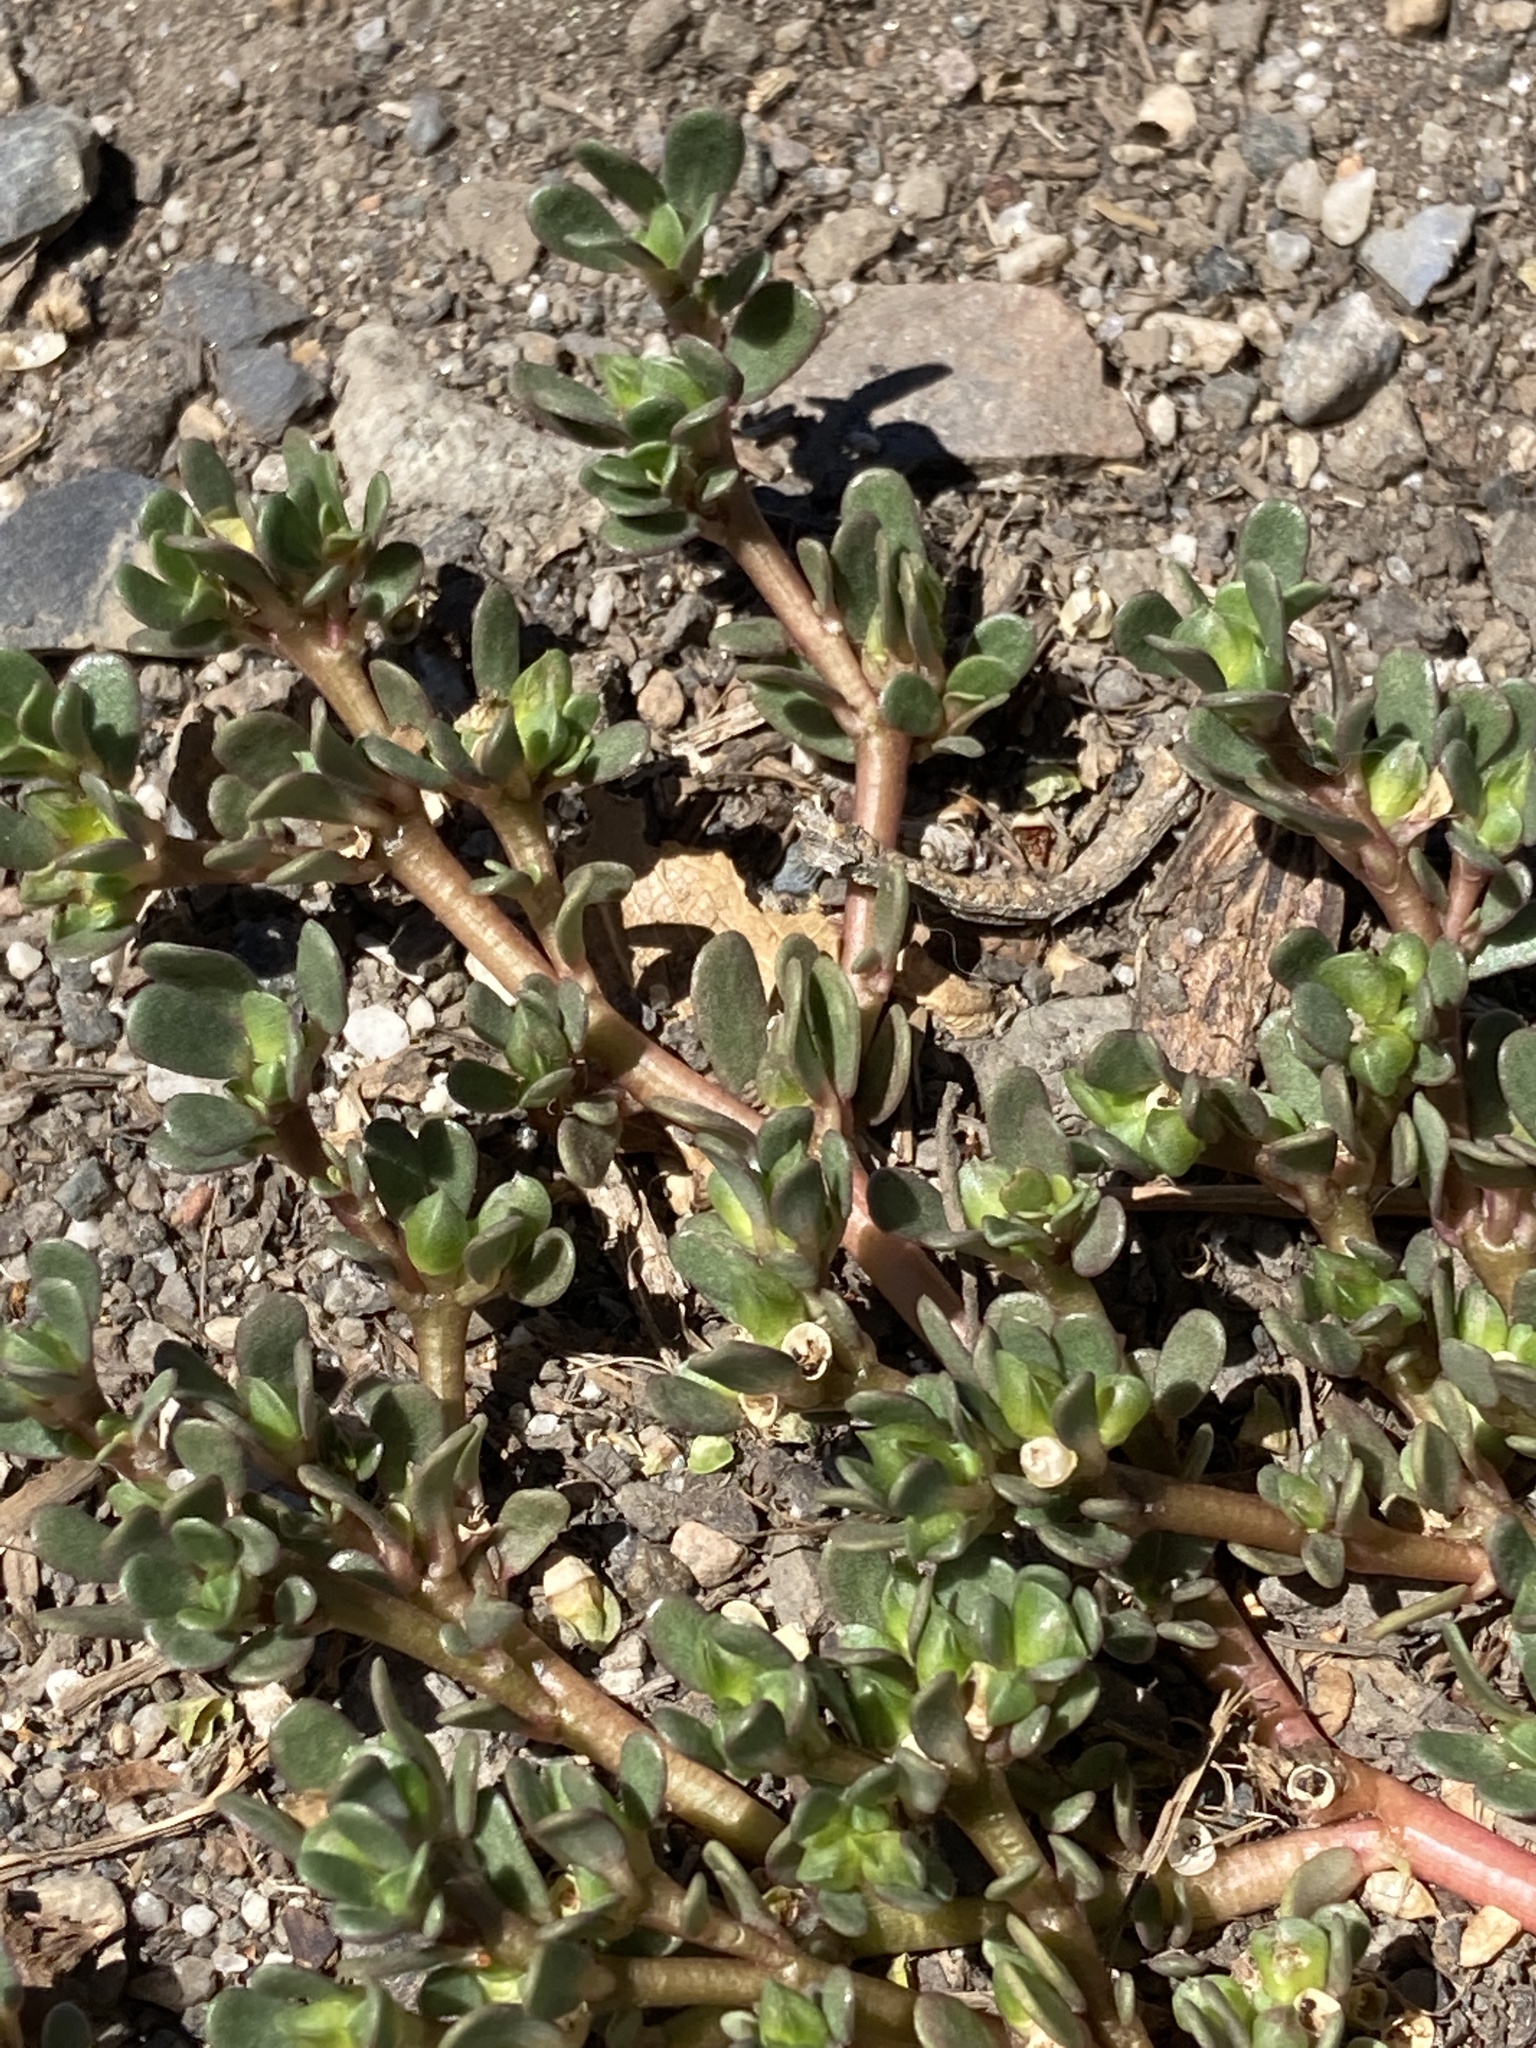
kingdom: Plantae
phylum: Tracheophyta
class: Magnoliopsida
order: Caryophyllales
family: Portulacaceae
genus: Portulaca
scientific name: Portulaca oleracea
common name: Common purslane
